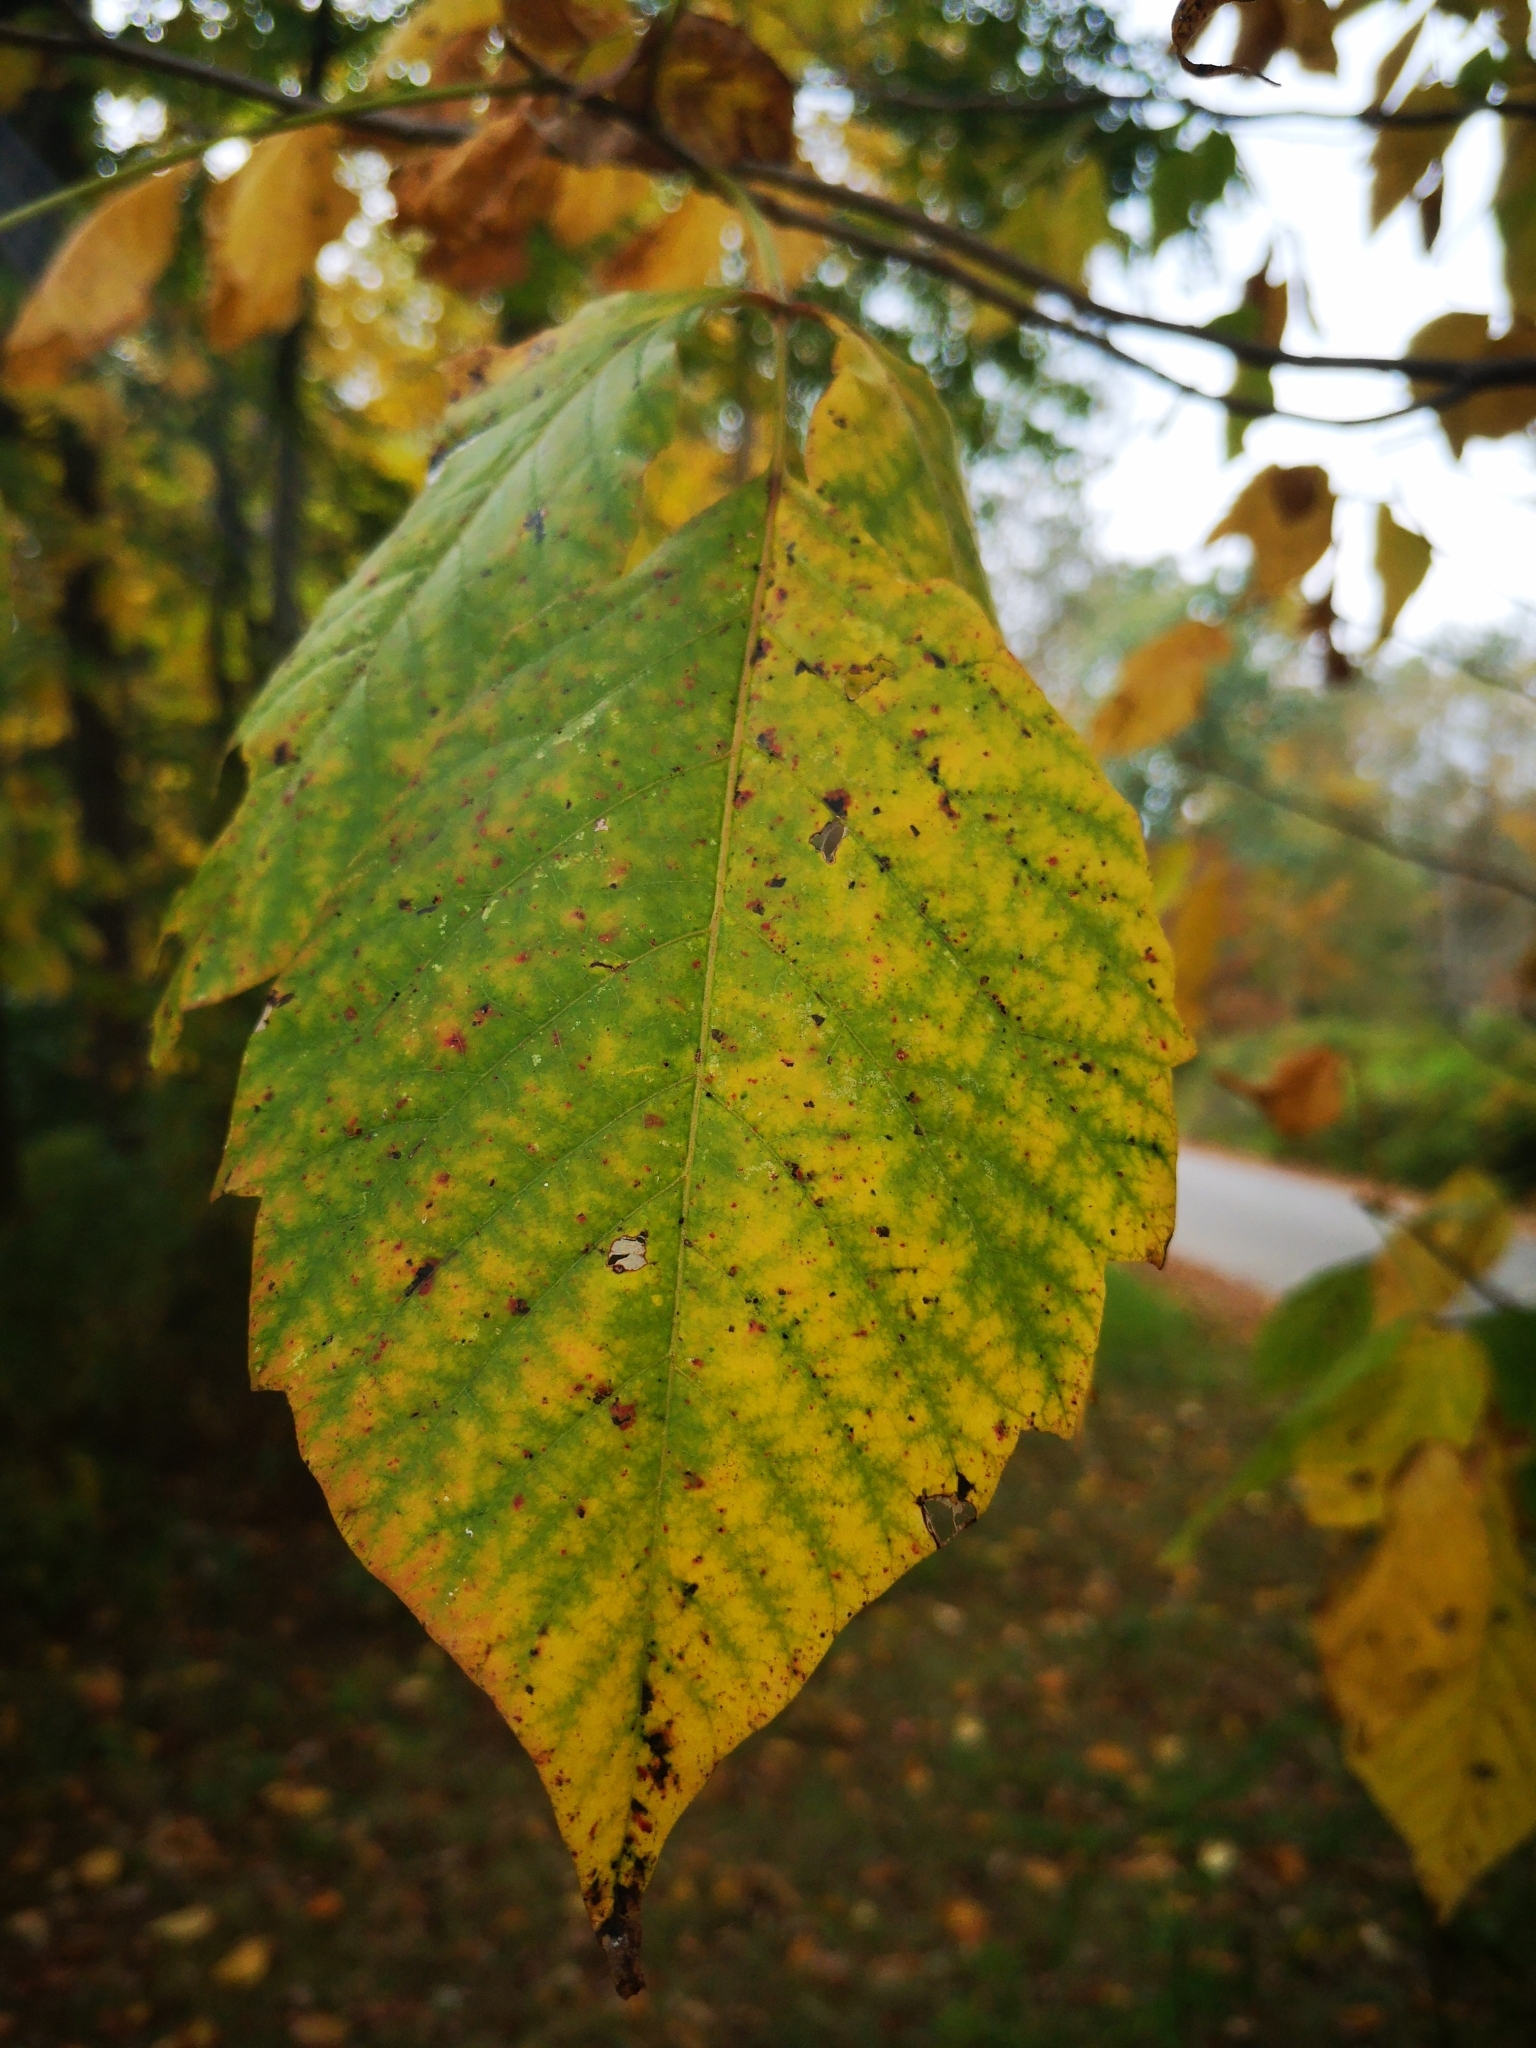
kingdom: Plantae
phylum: Tracheophyta
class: Magnoliopsida
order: Sapindales
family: Anacardiaceae
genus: Toxicodendron
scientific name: Toxicodendron radicans
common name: Poison ivy
